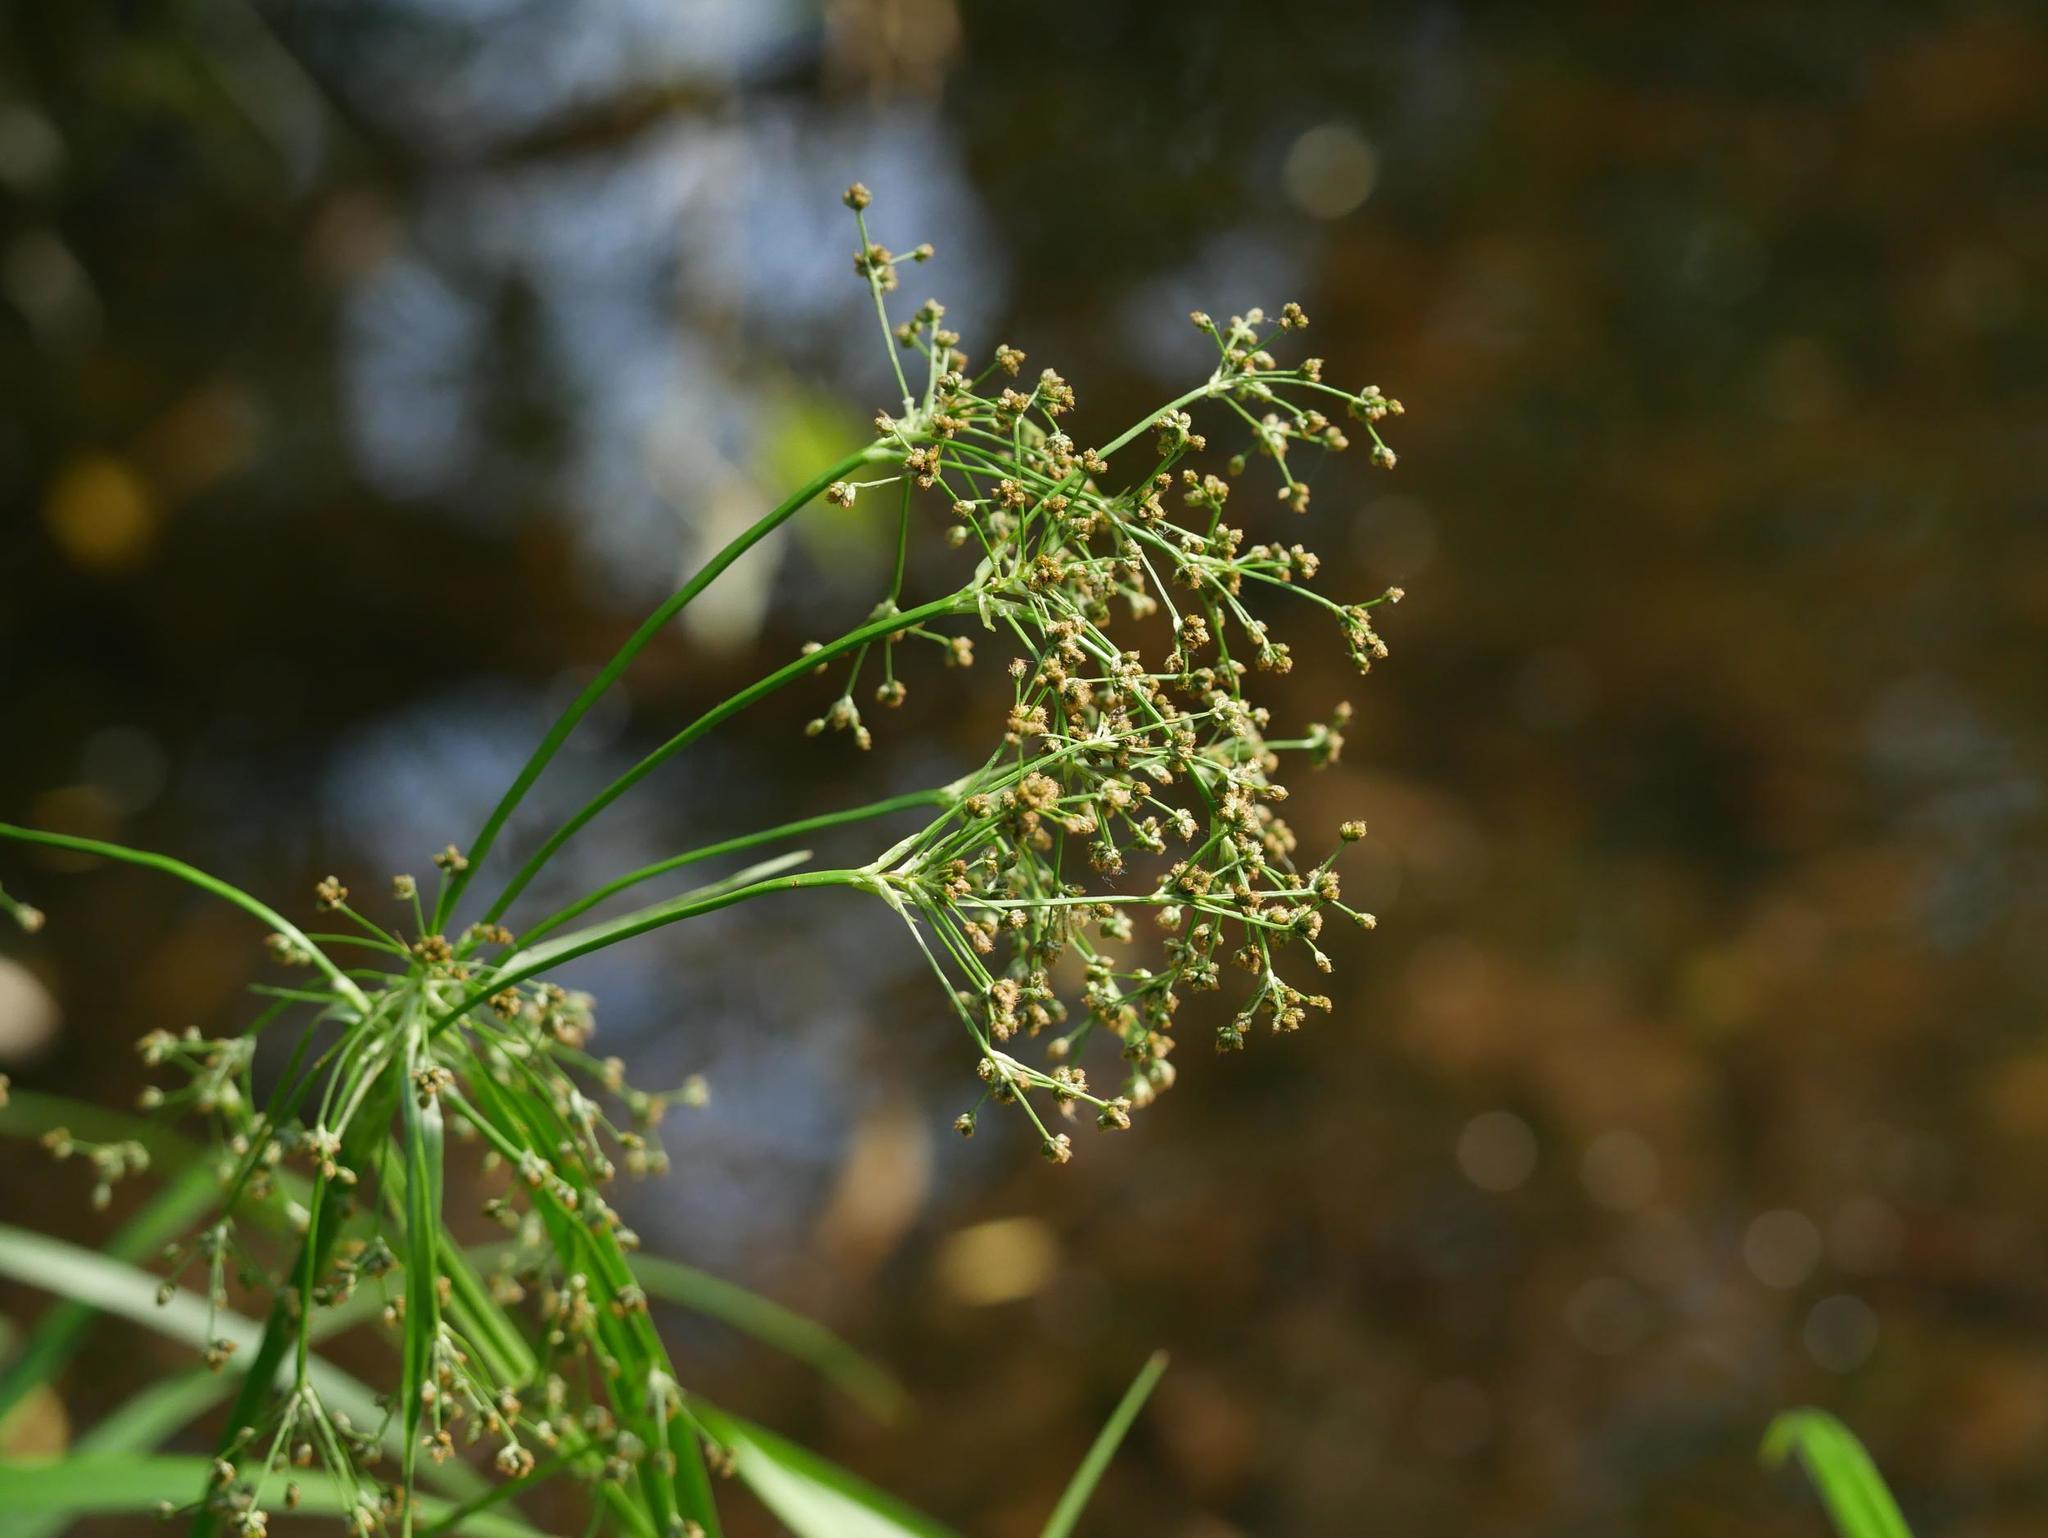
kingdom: Plantae
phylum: Tracheophyta
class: Liliopsida
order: Poales
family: Cyperaceae
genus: Scirpus
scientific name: Scirpus sylvaticus
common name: Wood club-rush
